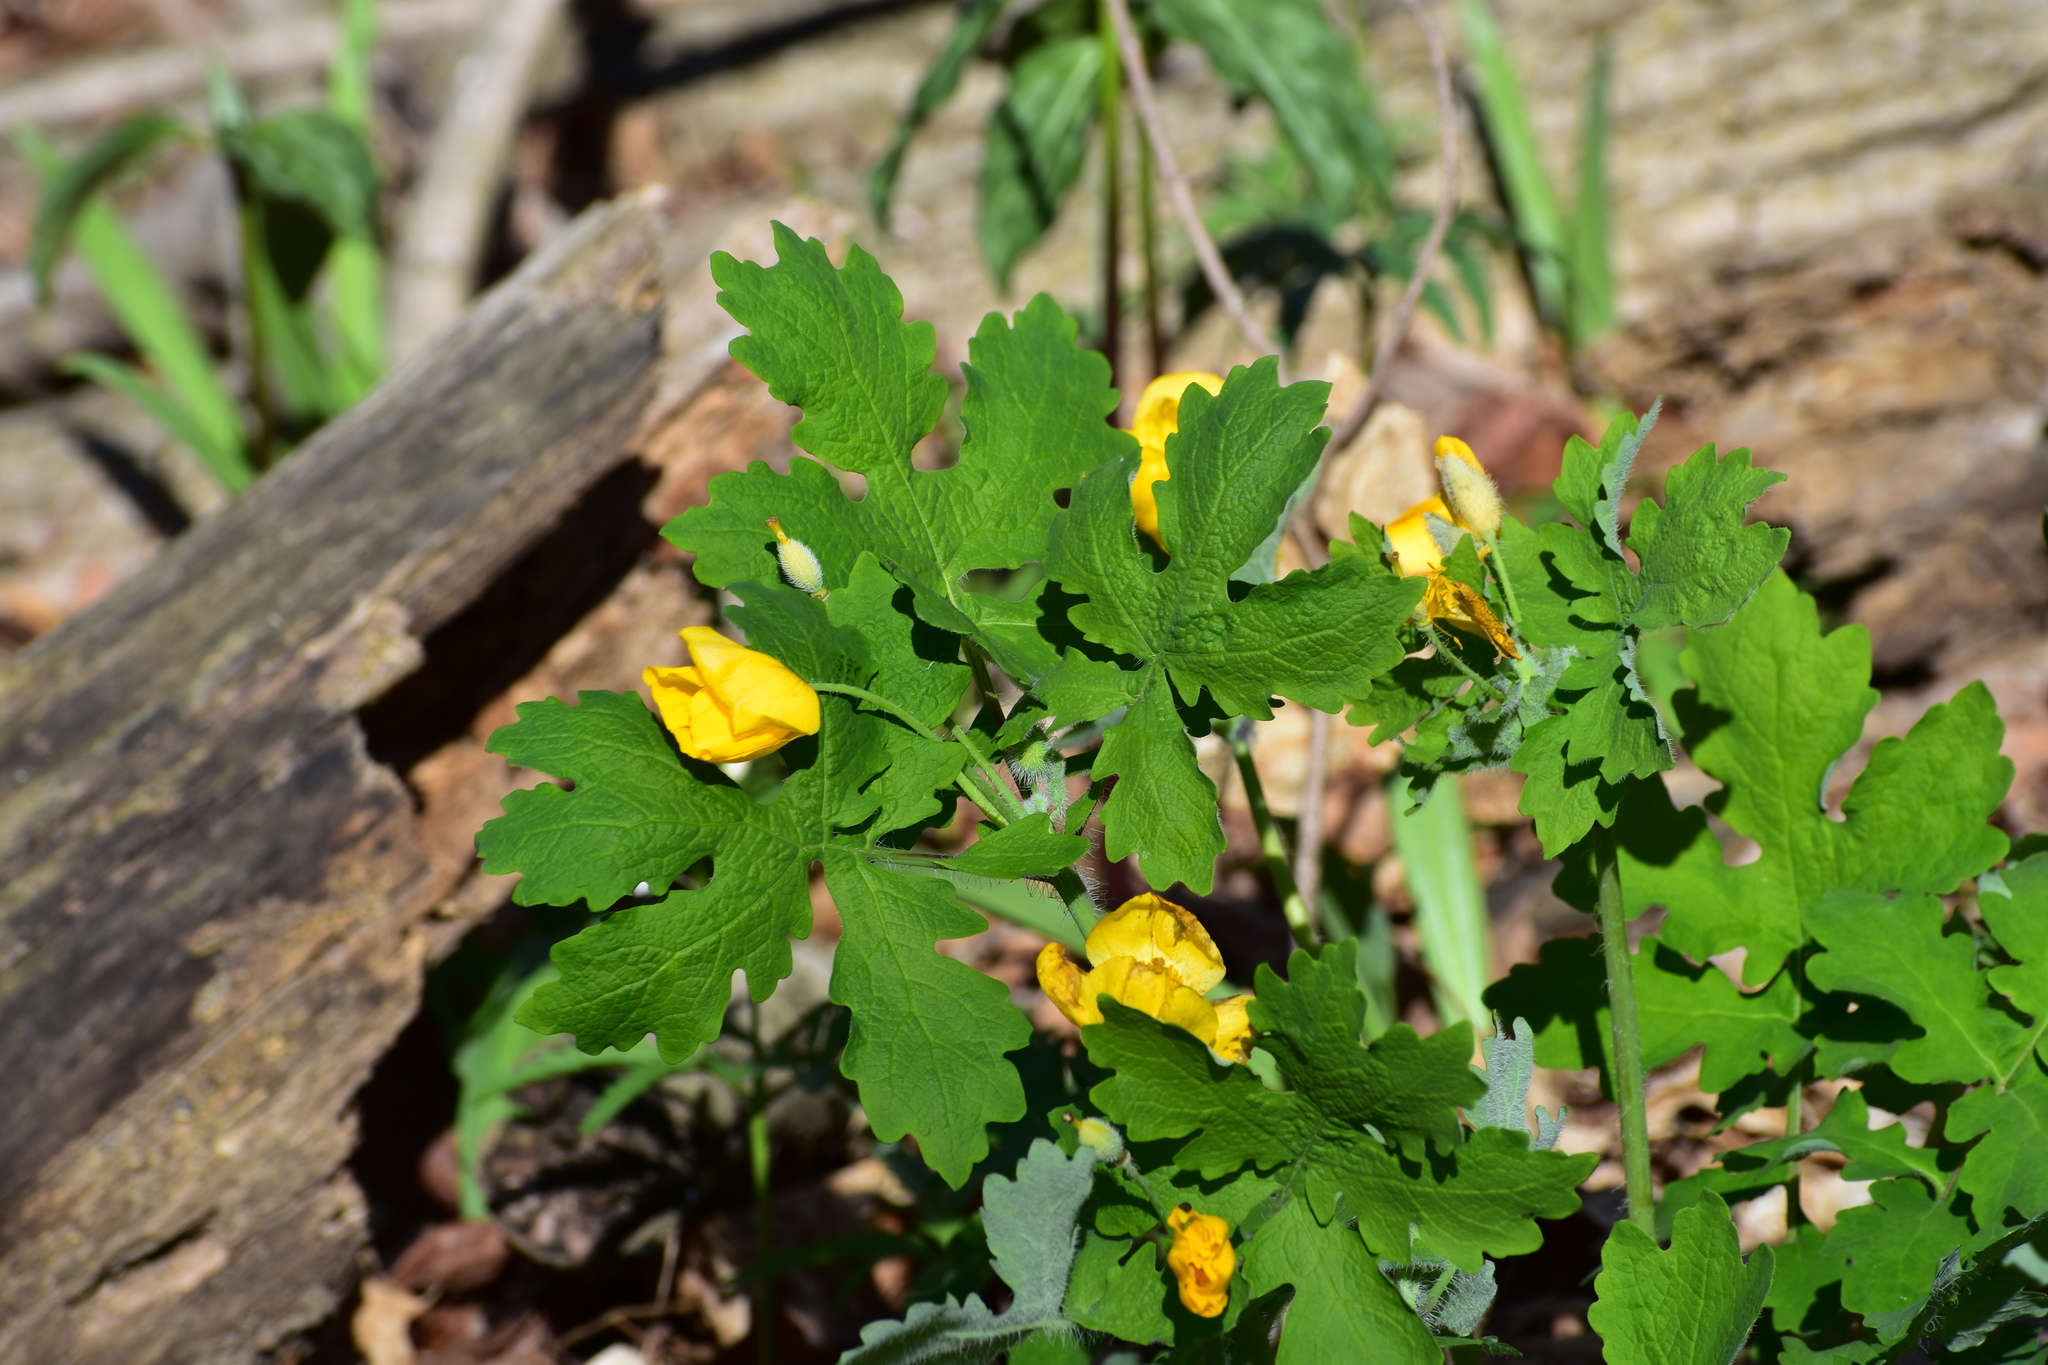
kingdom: Plantae
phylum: Tracheophyta
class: Magnoliopsida
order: Ranunculales
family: Papaveraceae
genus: Stylophorum
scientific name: Stylophorum diphyllum
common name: Celandine poppy
